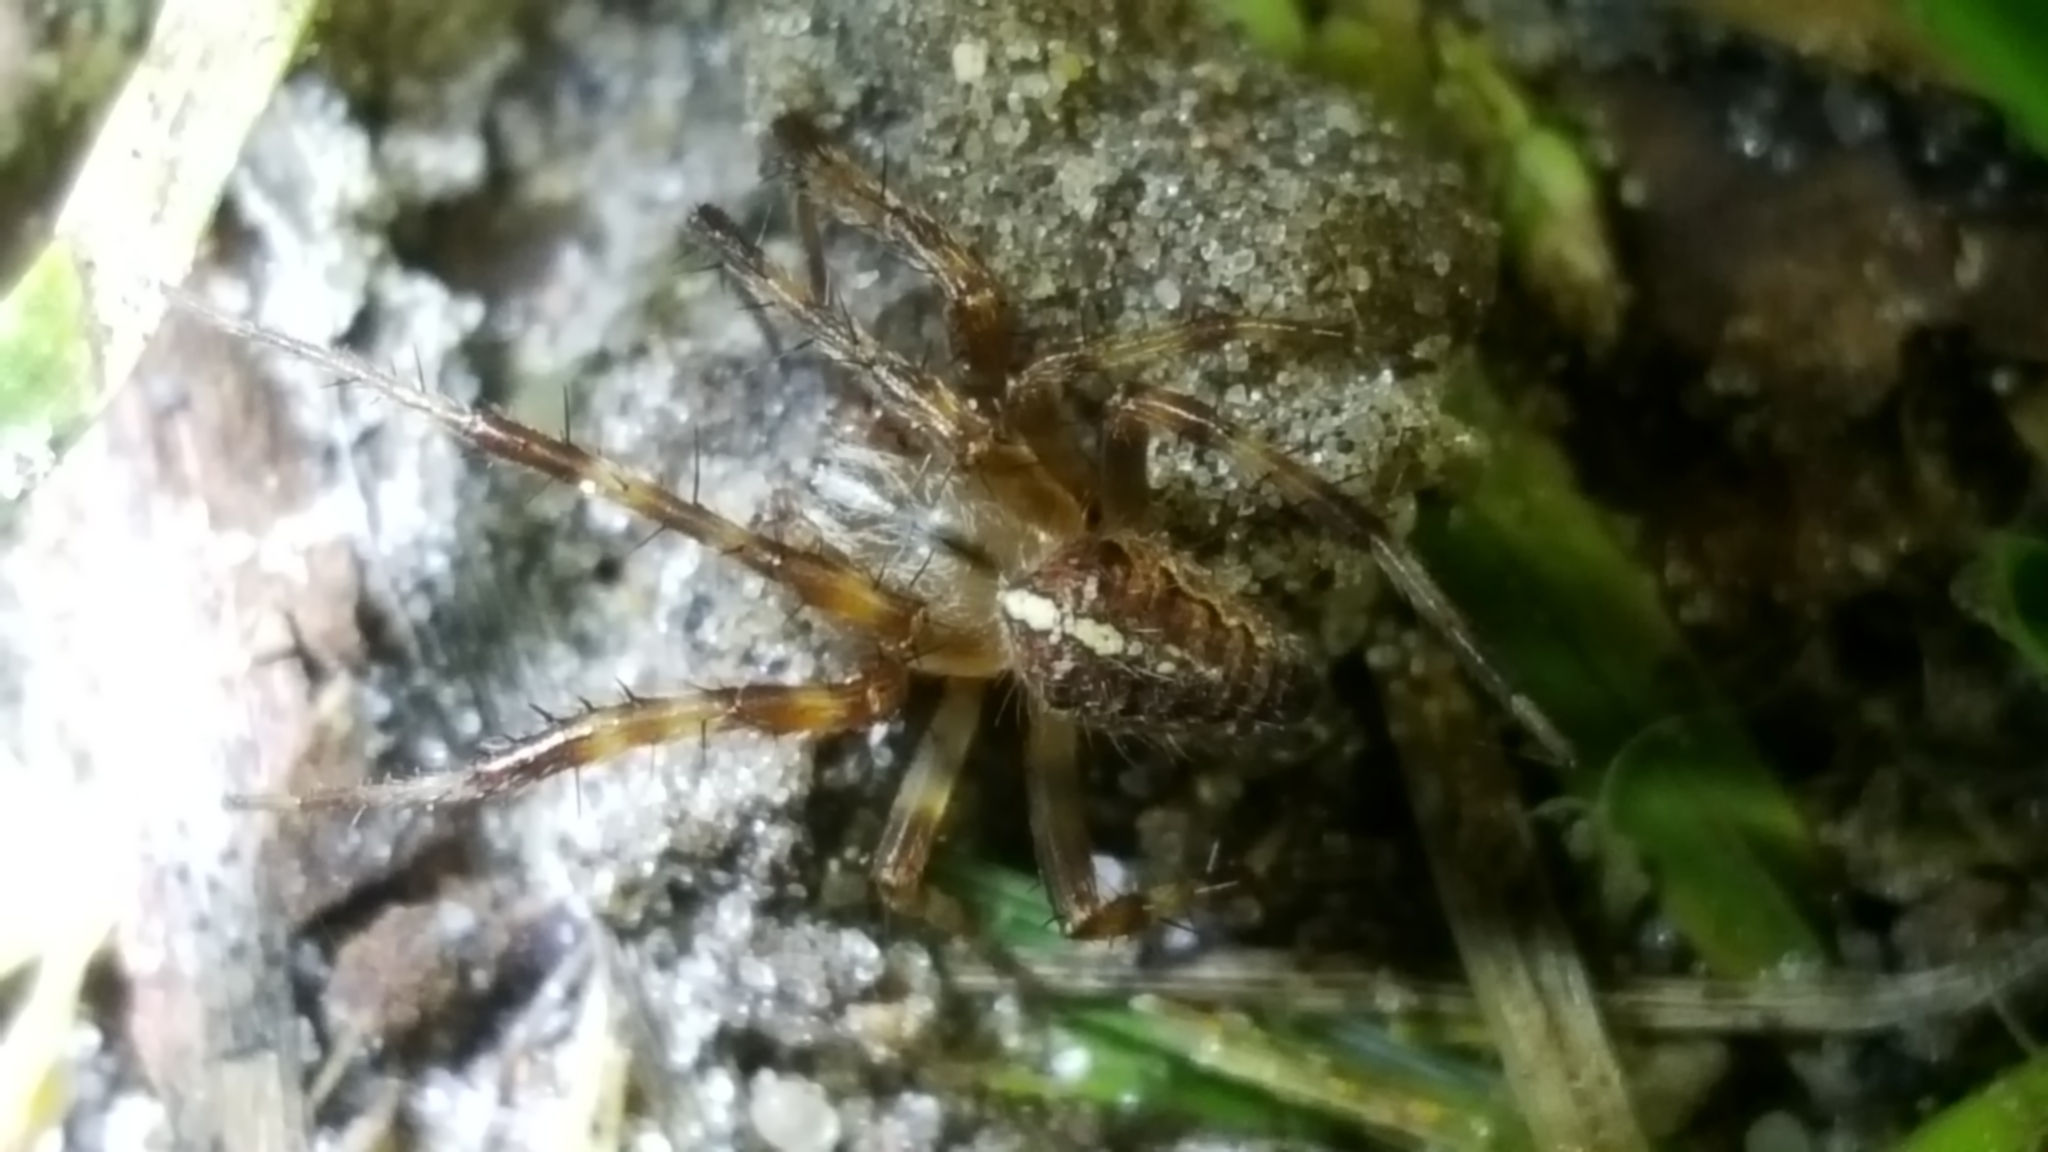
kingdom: Animalia
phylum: Arthropoda
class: Arachnida
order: Araneae
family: Araneidae
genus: Araneus
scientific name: Araneus diadematus
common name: Cross orbweaver
